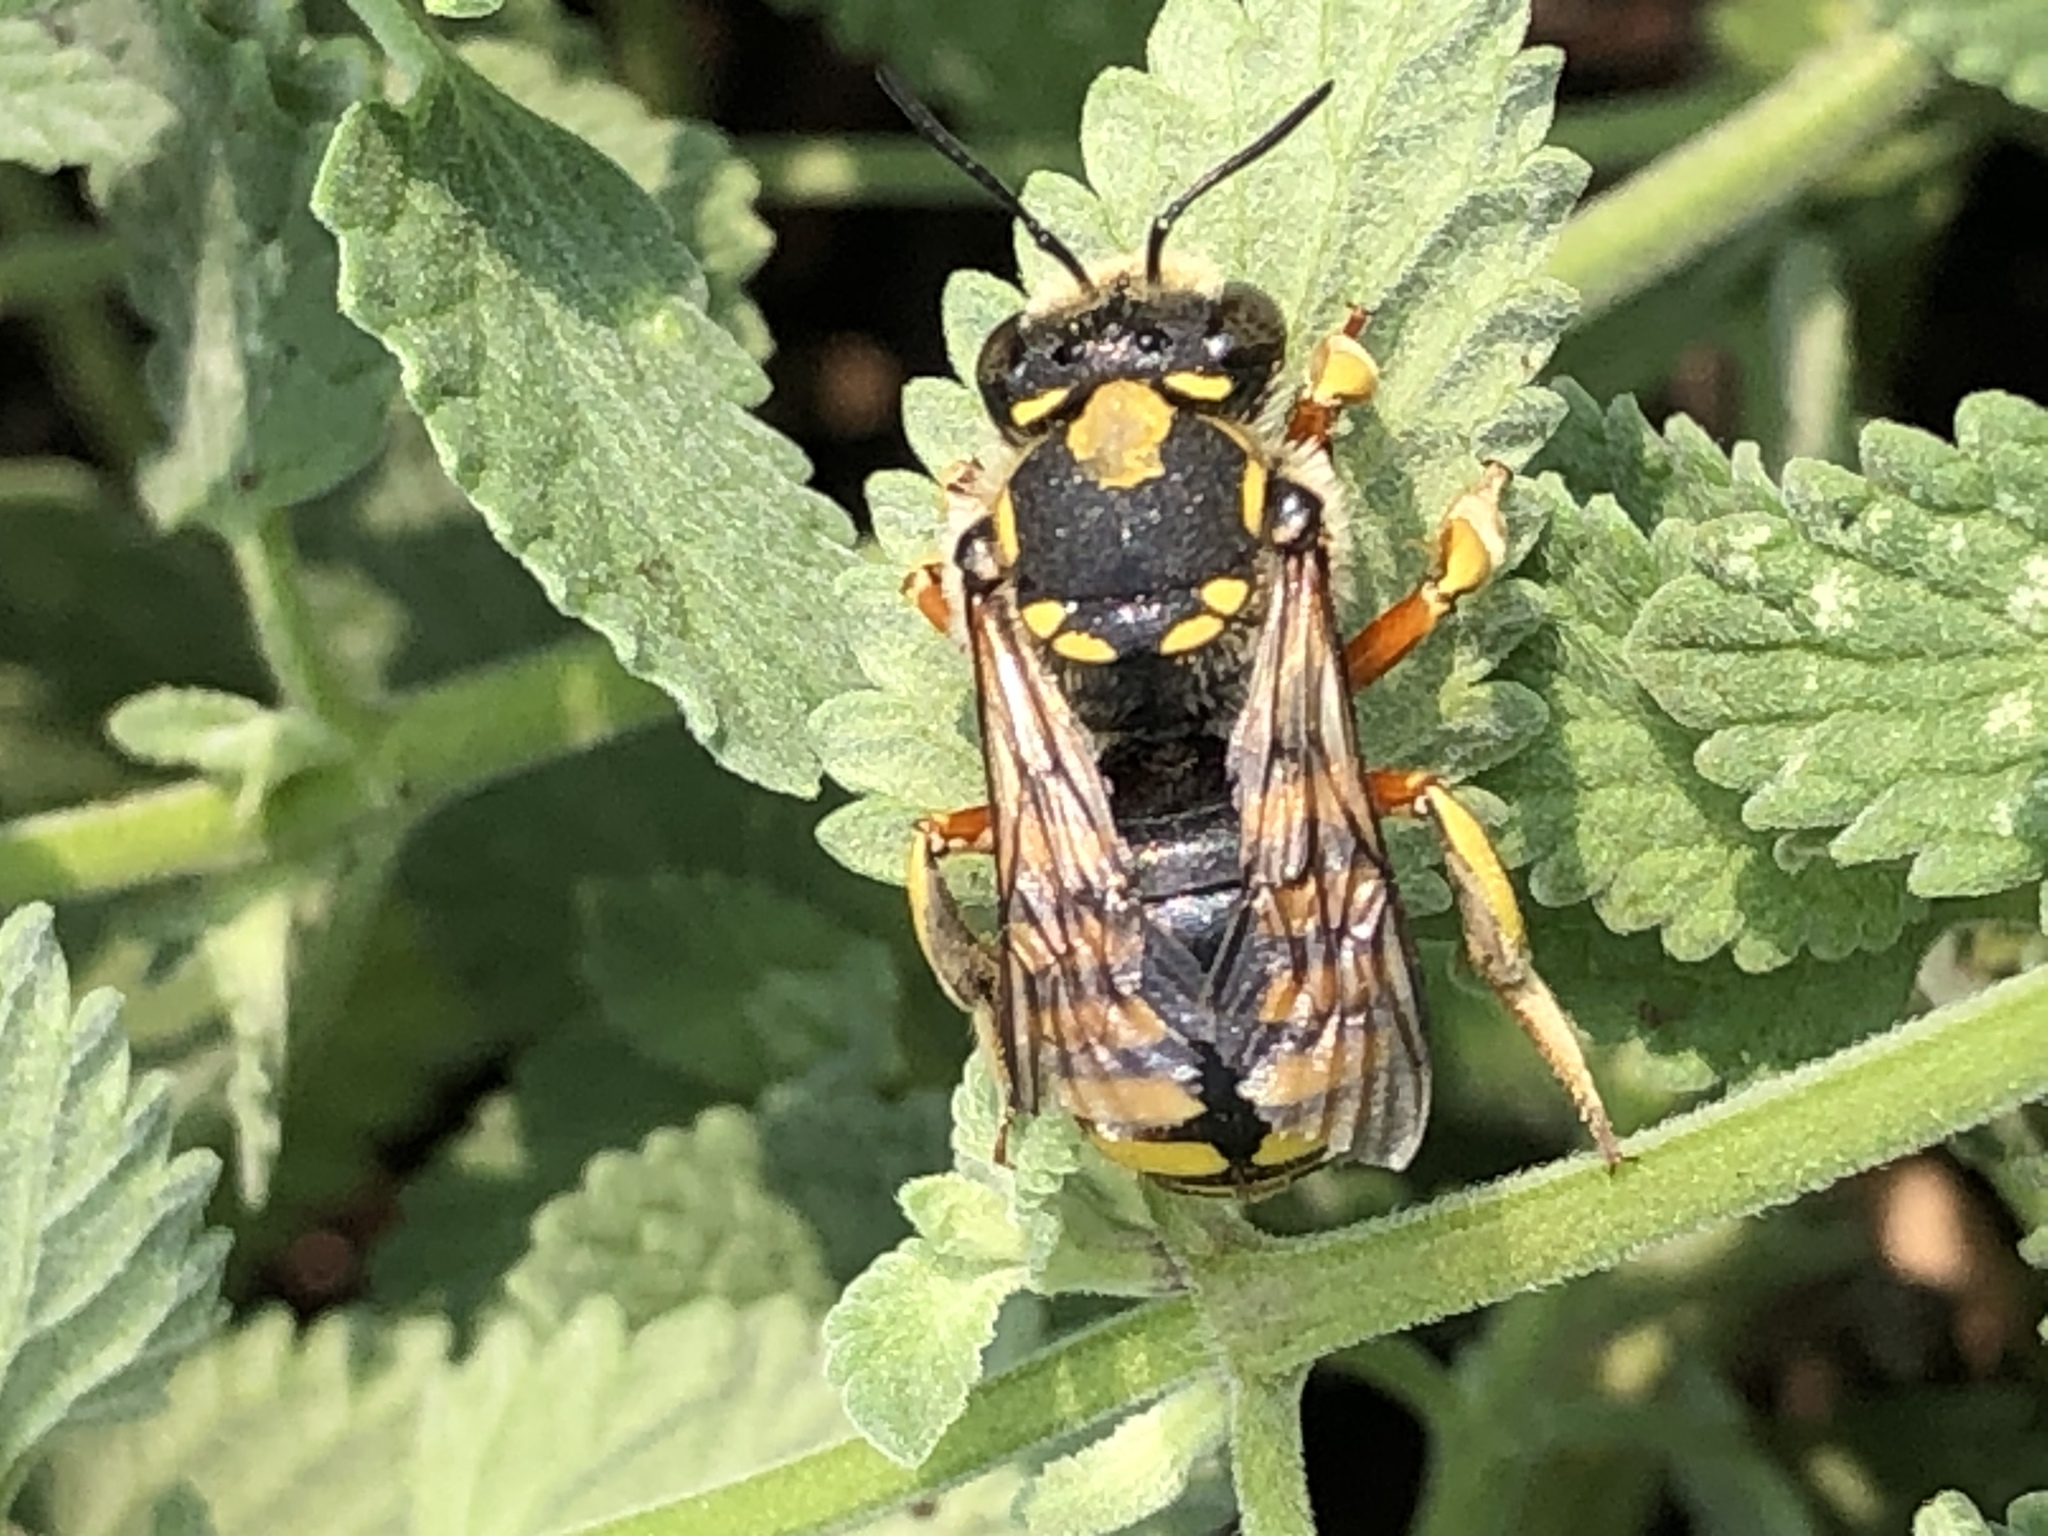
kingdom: Animalia
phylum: Arthropoda
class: Insecta
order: Hymenoptera
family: Megachilidae
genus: Anthidium
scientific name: Anthidium manicatum
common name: Wool carder bee
